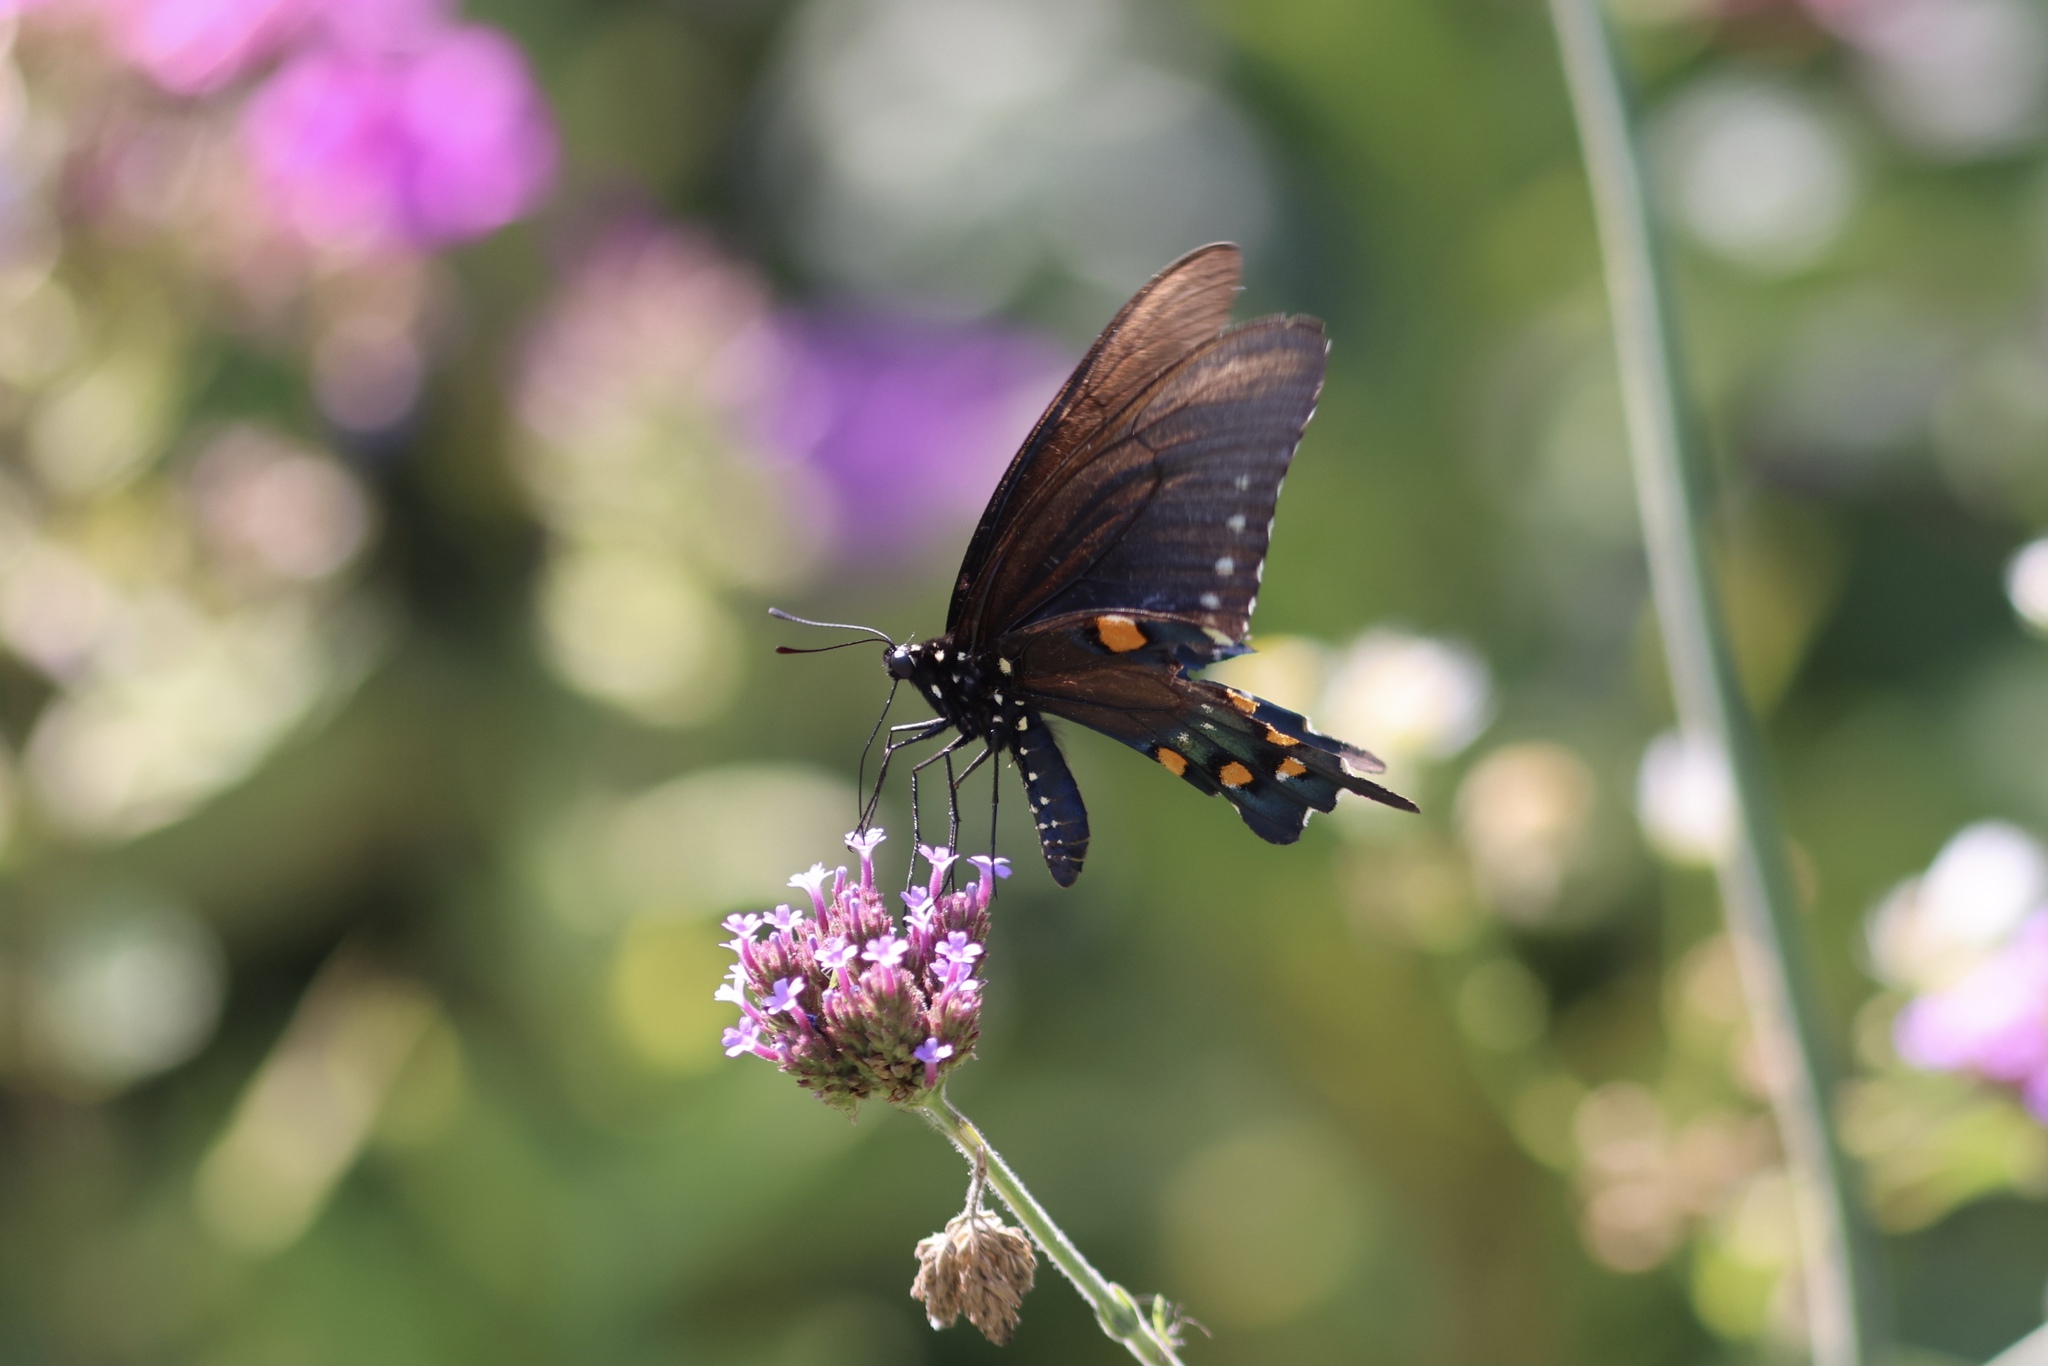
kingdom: Animalia
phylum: Arthropoda
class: Insecta
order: Lepidoptera
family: Papilionidae
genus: Battus
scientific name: Battus philenor
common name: Pipevine swallowtail
